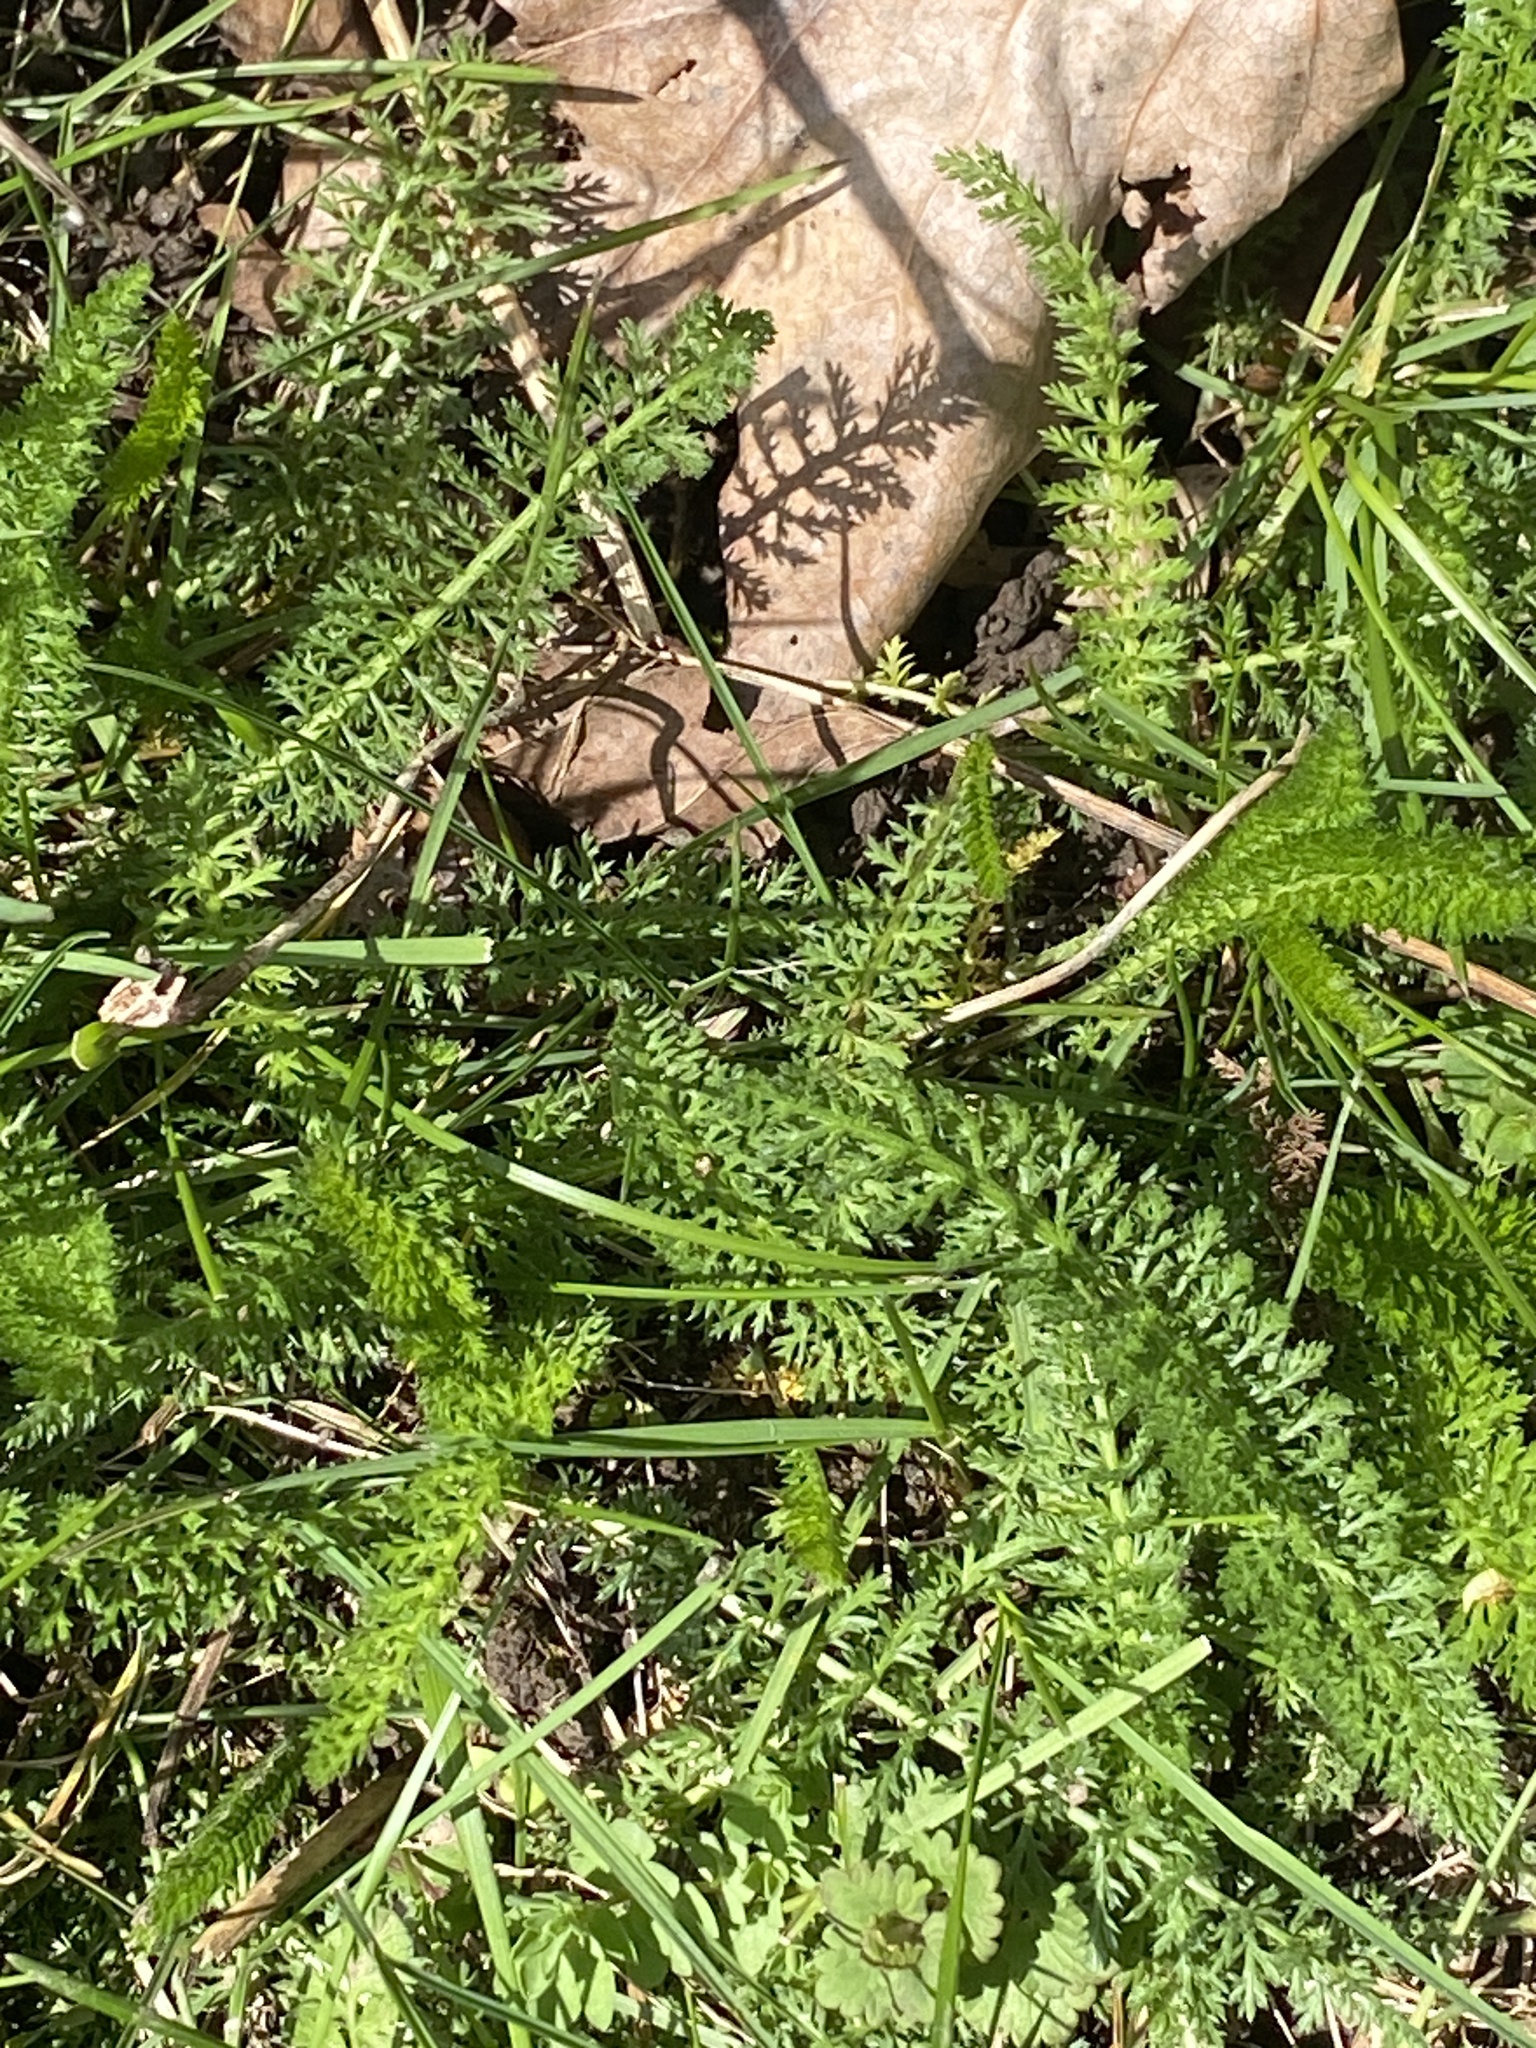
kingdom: Plantae
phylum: Tracheophyta
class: Magnoliopsida
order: Asterales
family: Asteraceae
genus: Achillea
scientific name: Achillea millefolium
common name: Yarrow
